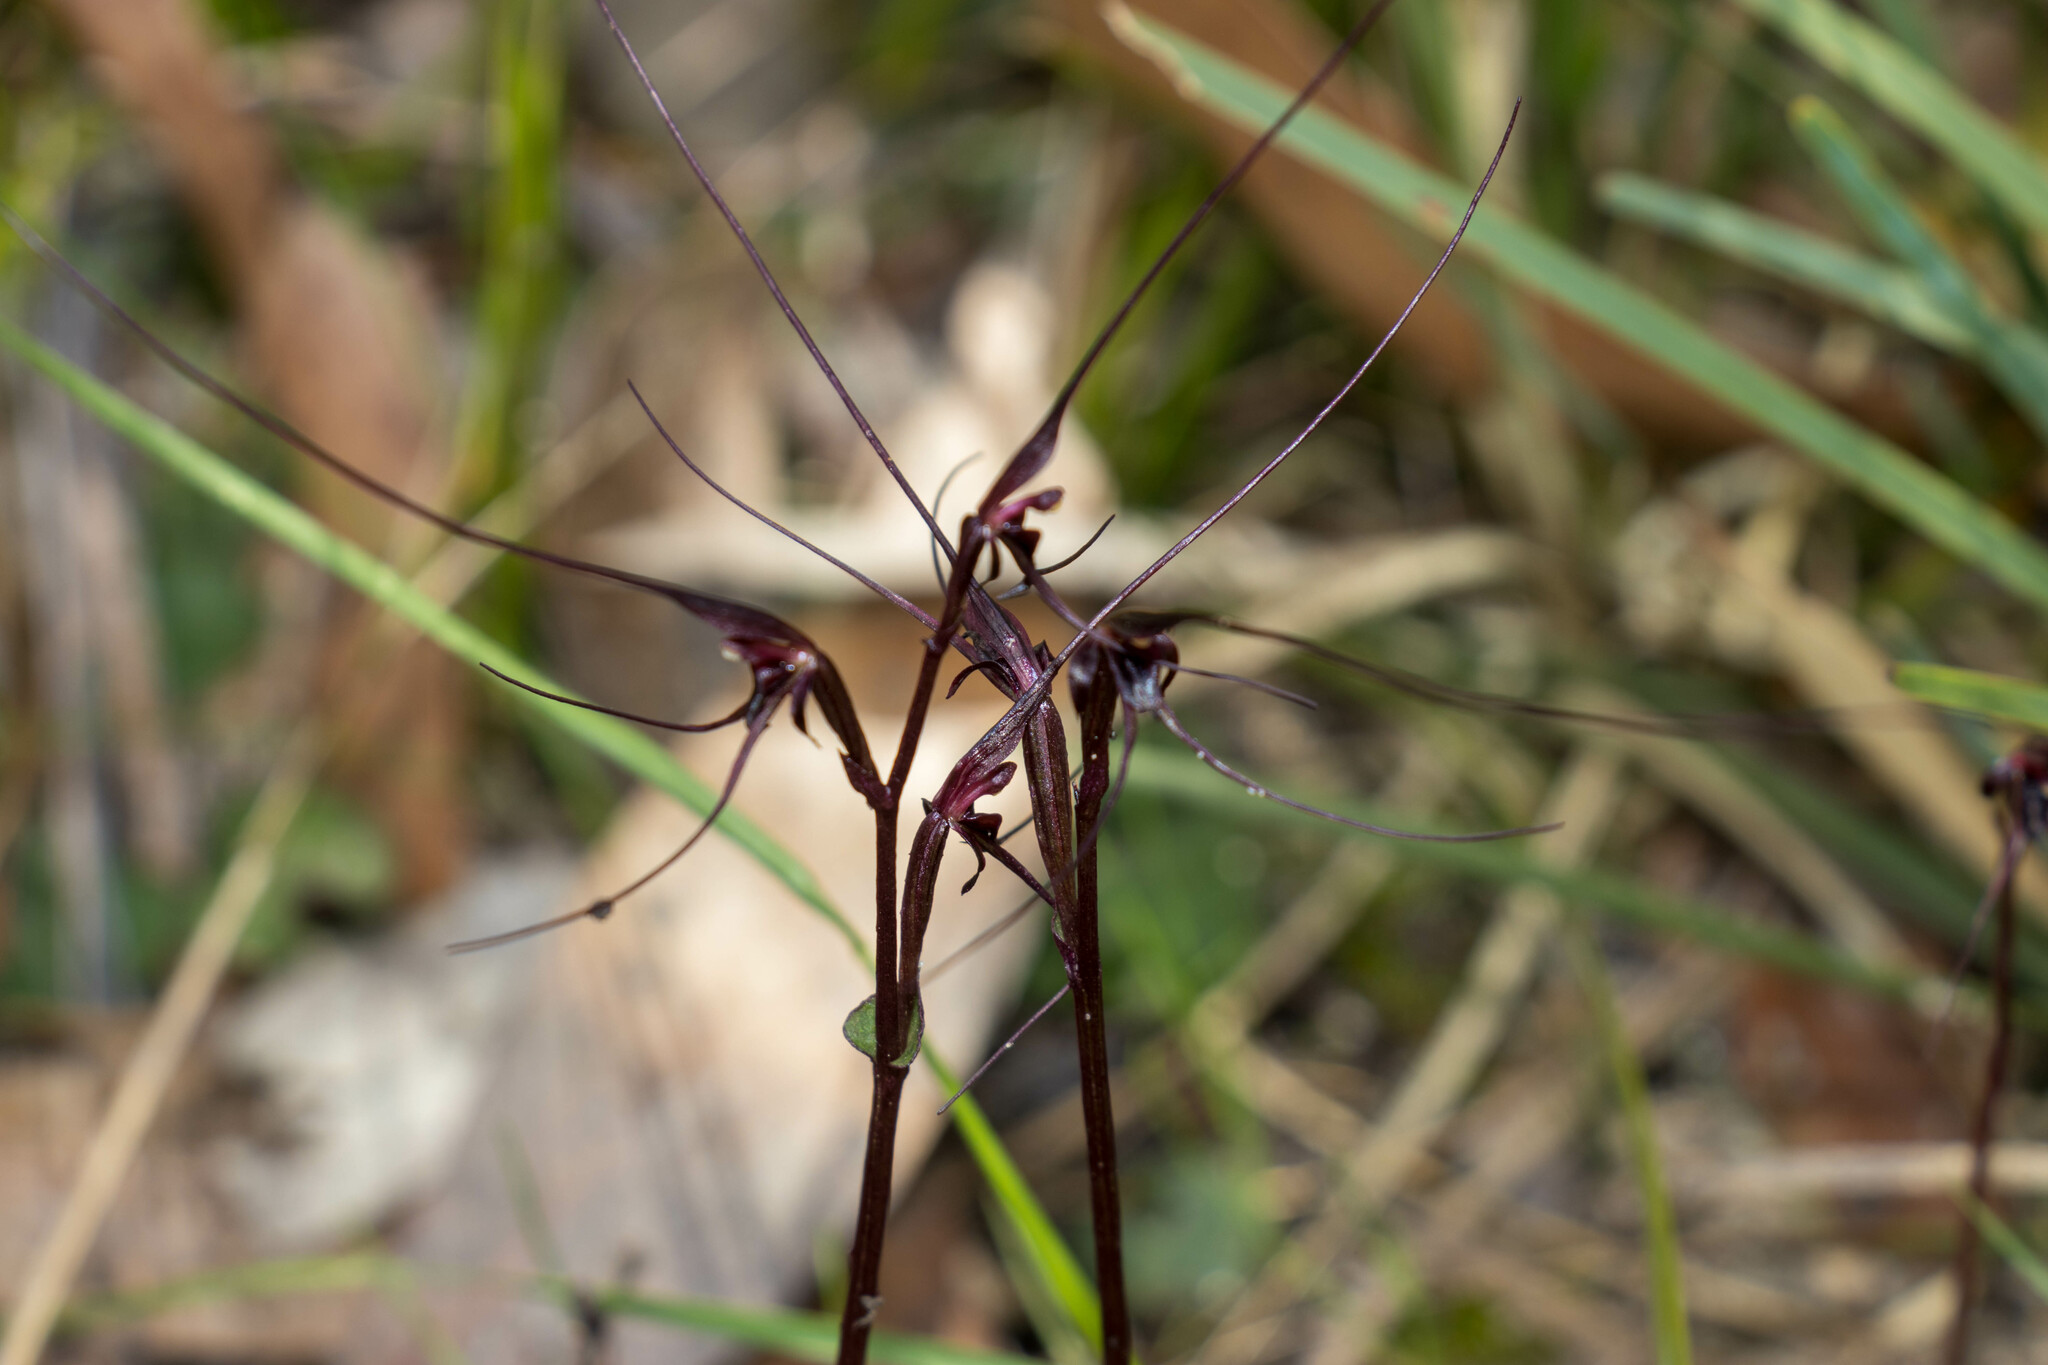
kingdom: Plantae
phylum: Tracheophyta
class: Liliopsida
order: Asparagales
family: Orchidaceae
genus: Acianthus
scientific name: Acianthus caudatus
